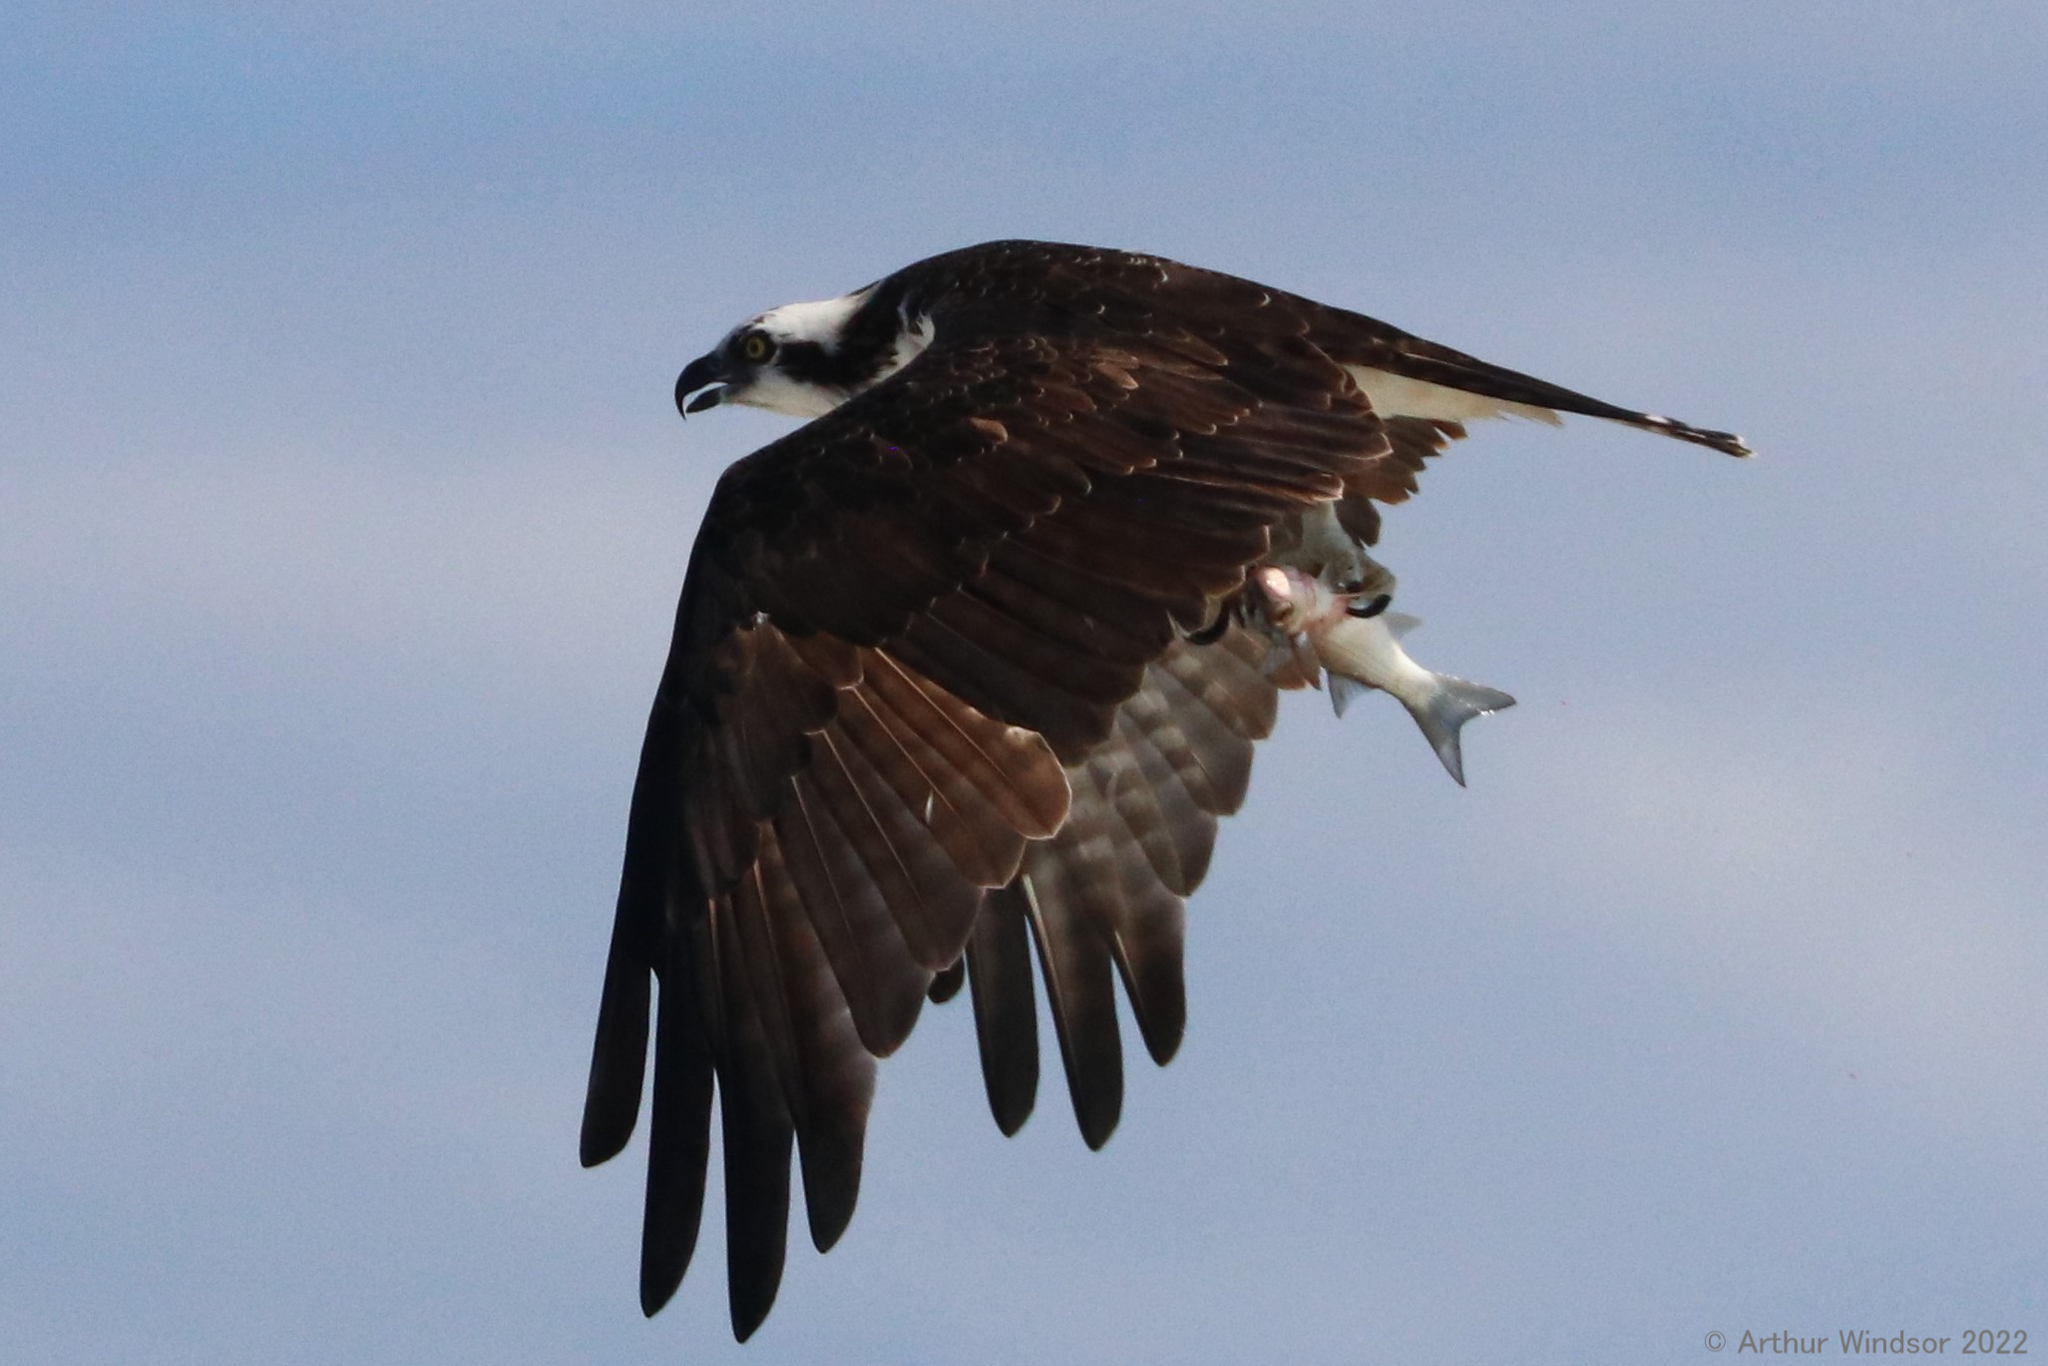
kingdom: Animalia
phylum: Chordata
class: Aves
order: Accipitriformes
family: Pandionidae
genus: Pandion
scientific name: Pandion haliaetus
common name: Osprey
